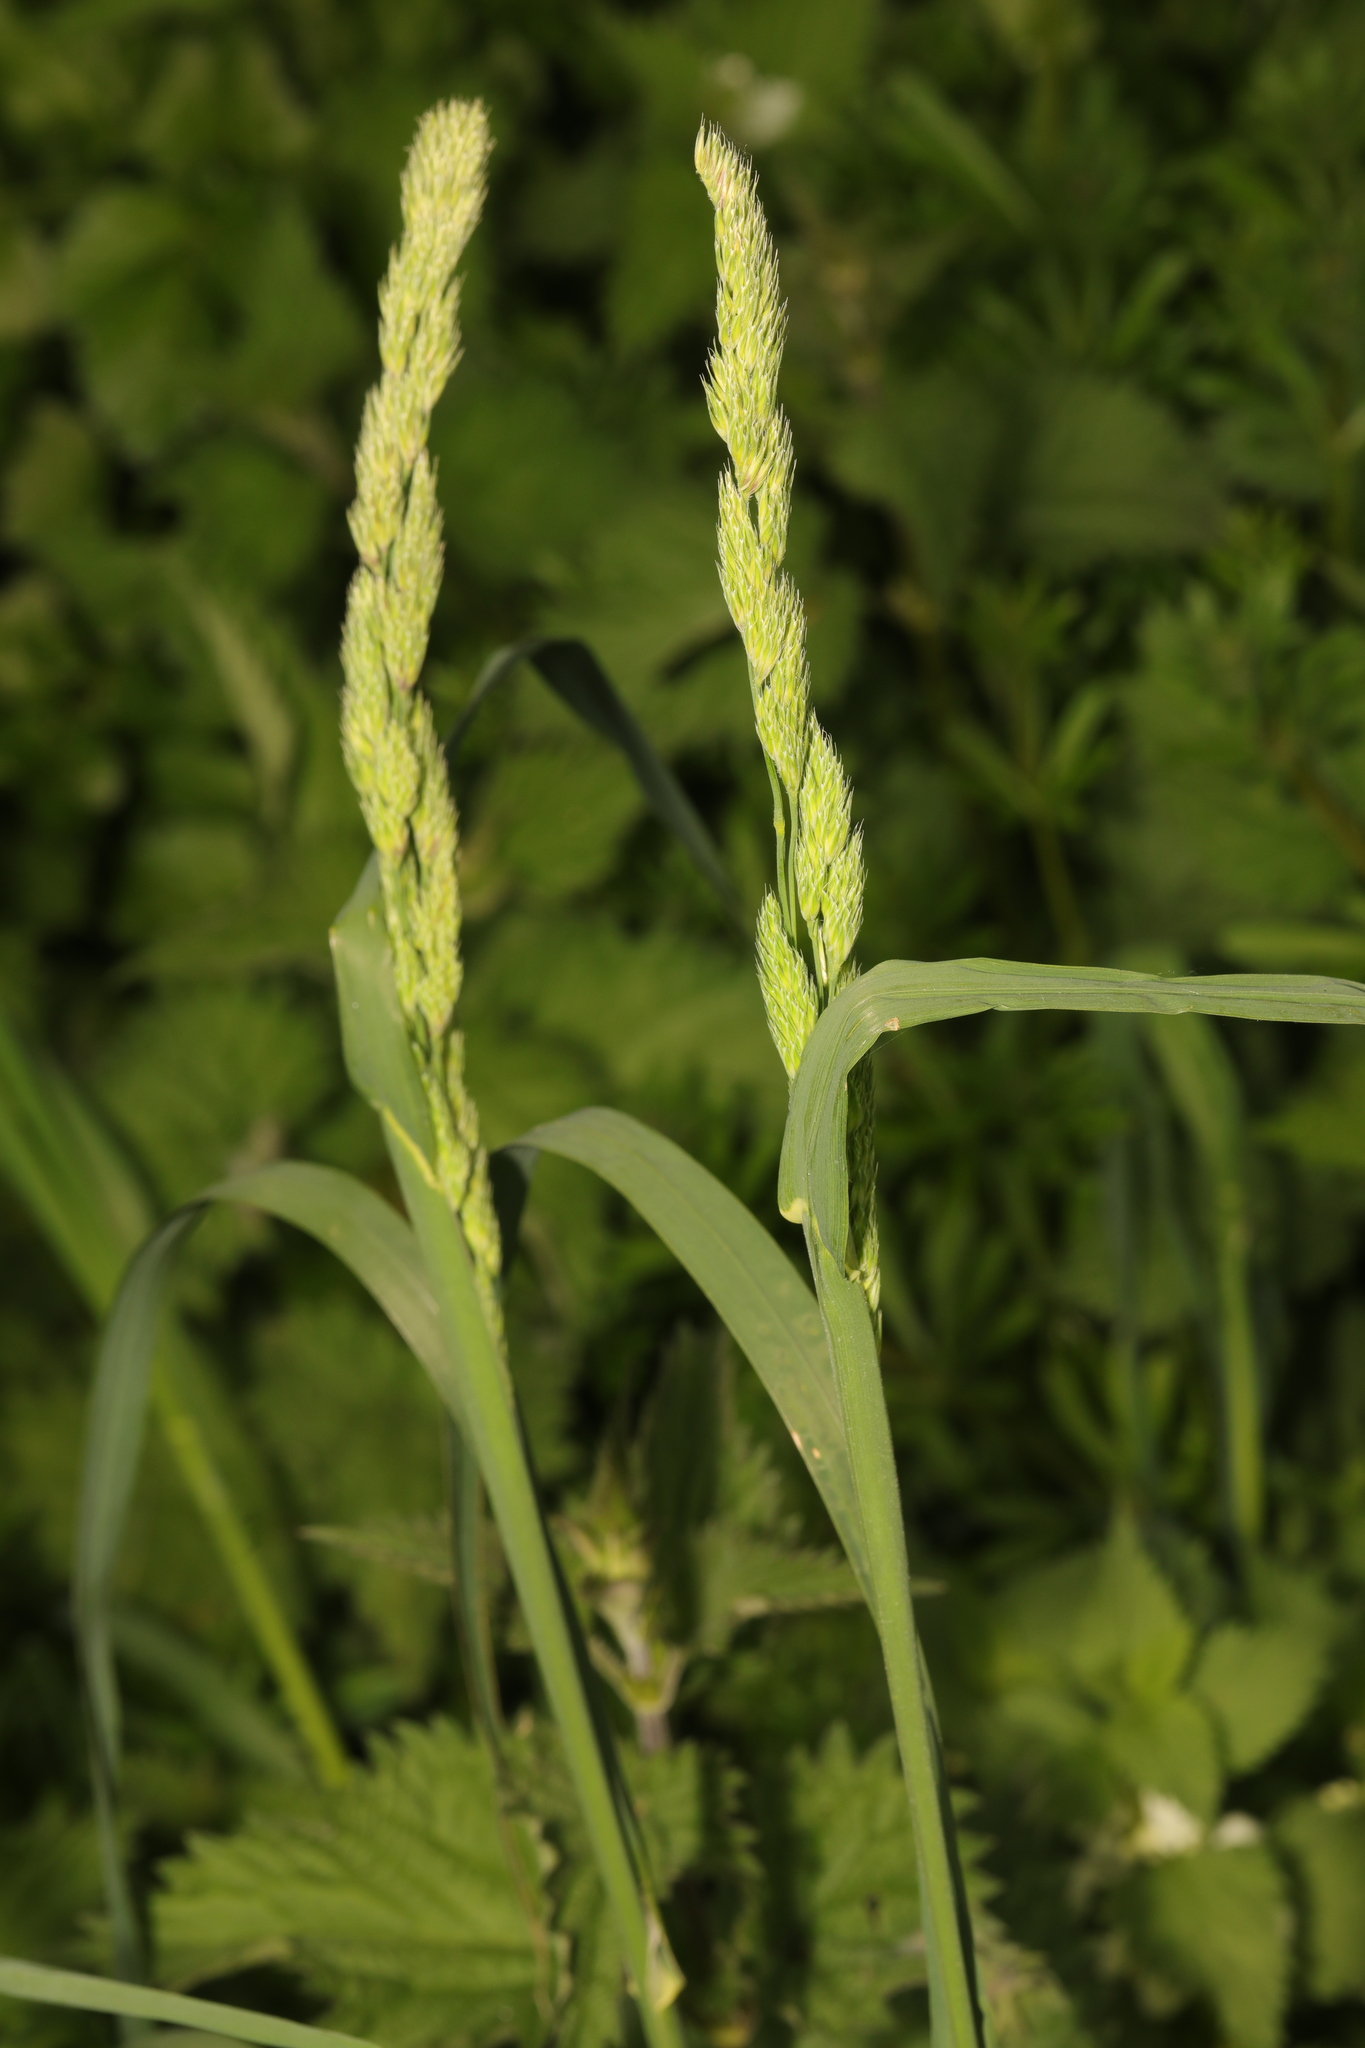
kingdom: Plantae
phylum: Tracheophyta
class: Liliopsida
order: Poales
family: Poaceae
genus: Dactylis
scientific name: Dactylis glomerata
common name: Orchardgrass
